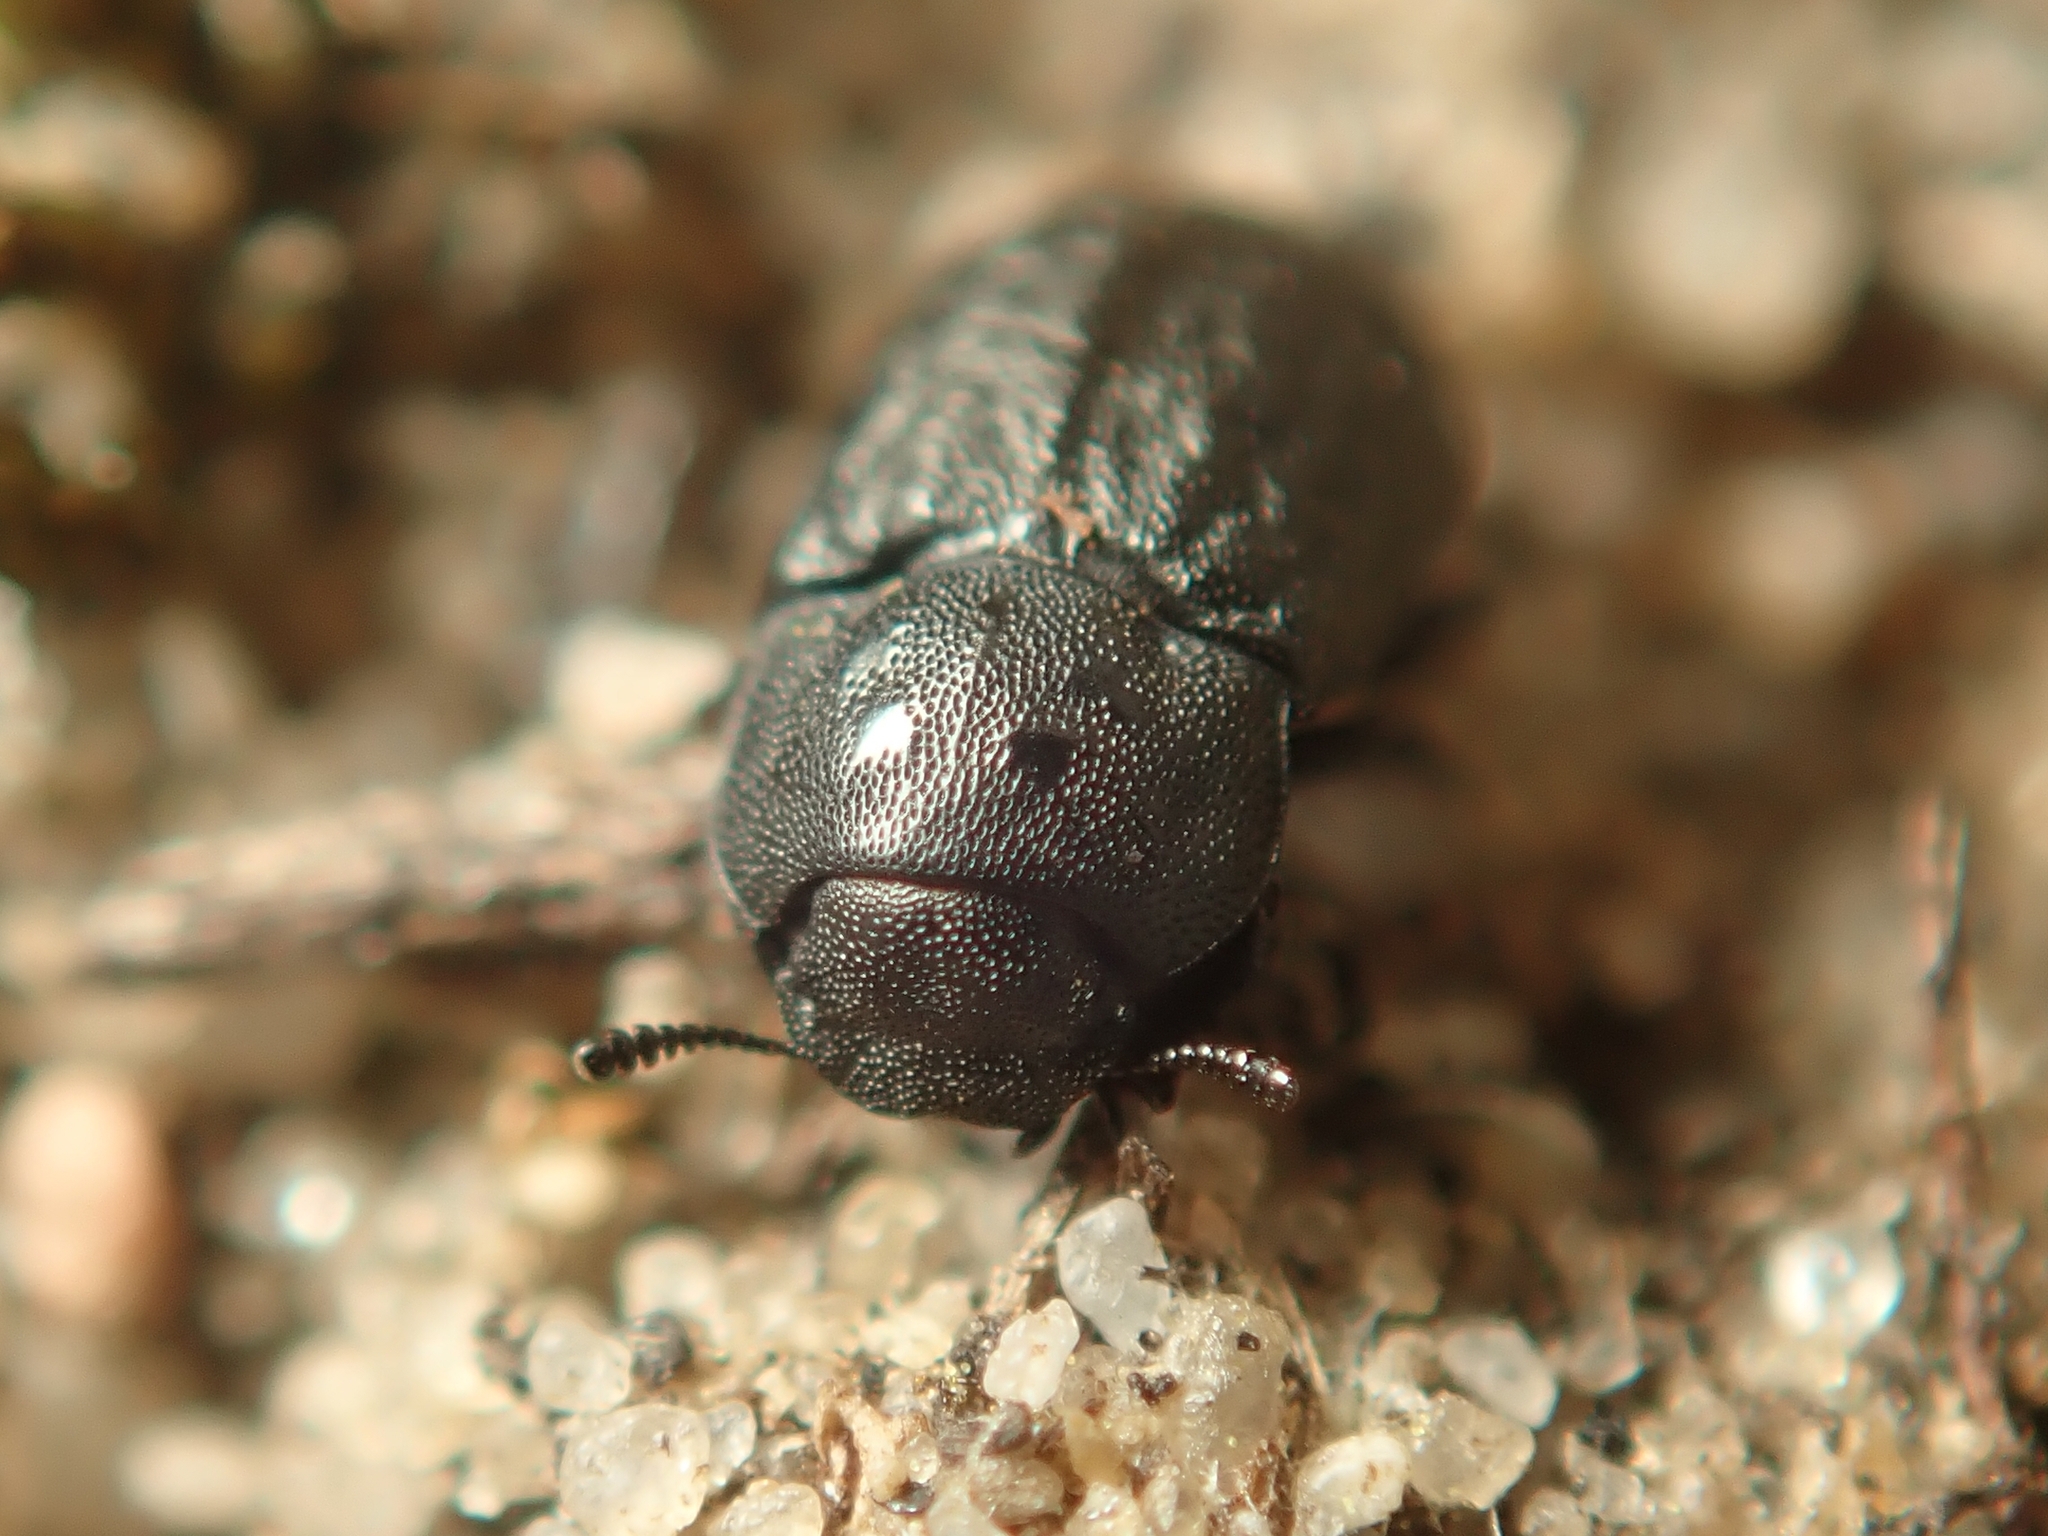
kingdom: Animalia
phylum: Arthropoda
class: Insecta
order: Coleoptera
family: Tenebrionidae
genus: Melanimon
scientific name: Melanimon tibialis
